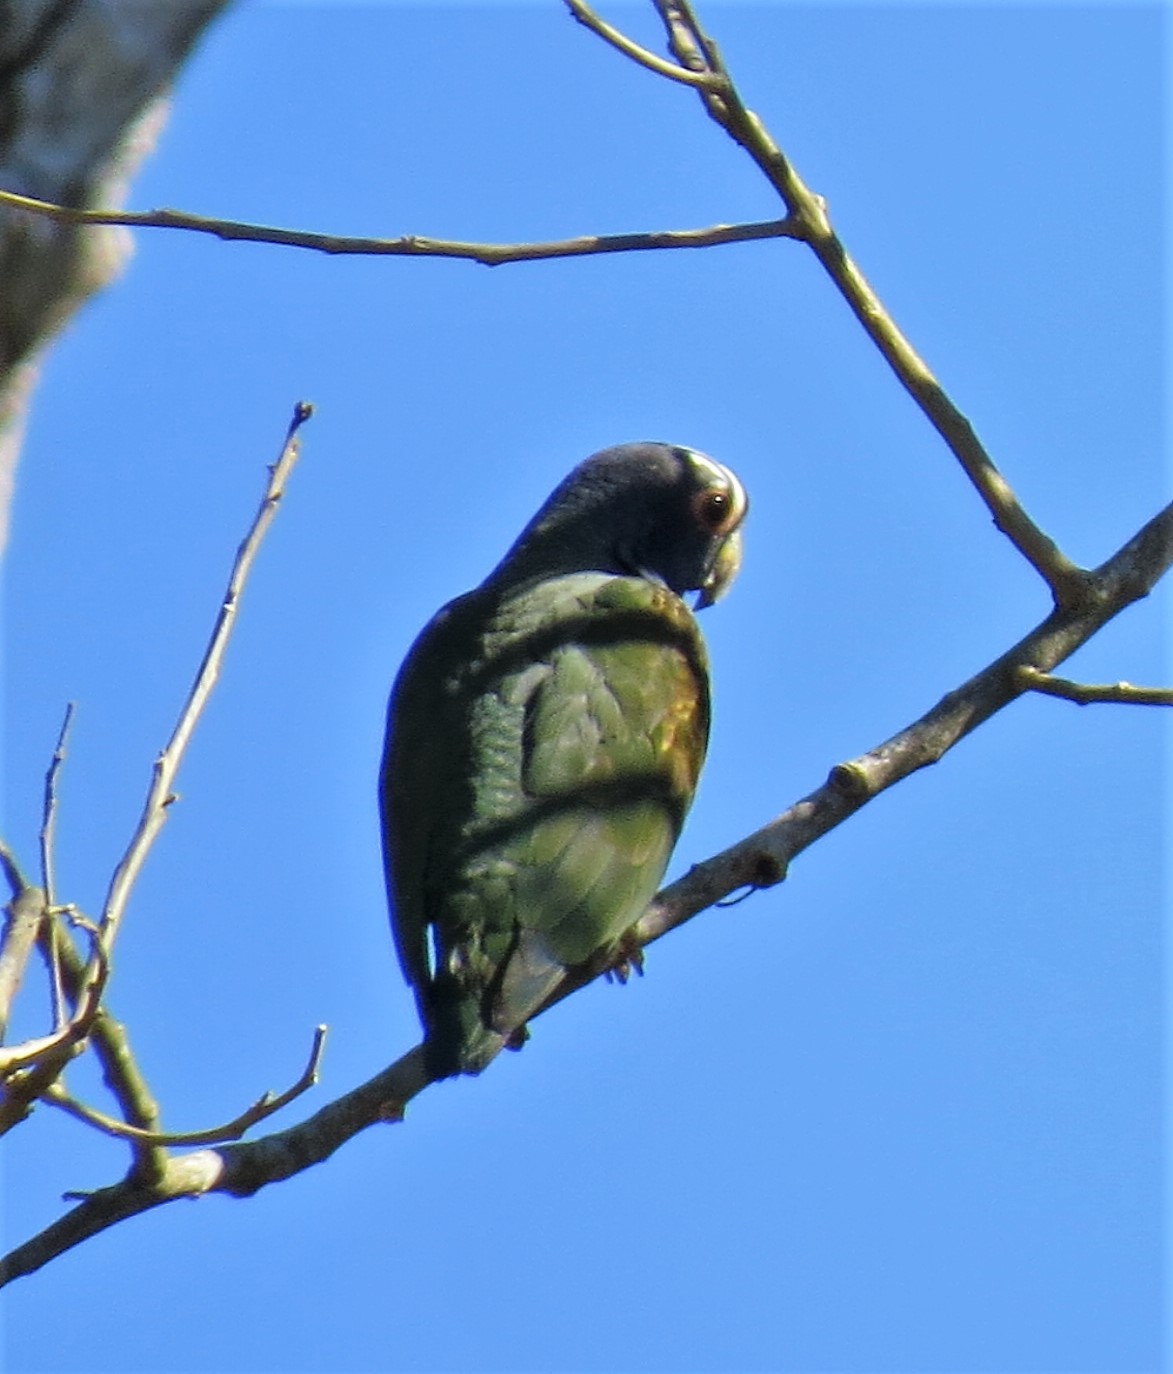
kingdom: Animalia
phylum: Chordata
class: Aves
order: Psittaciformes
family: Psittacidae
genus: Pionus
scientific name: Pionus senilis
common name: White-crowned parrot
